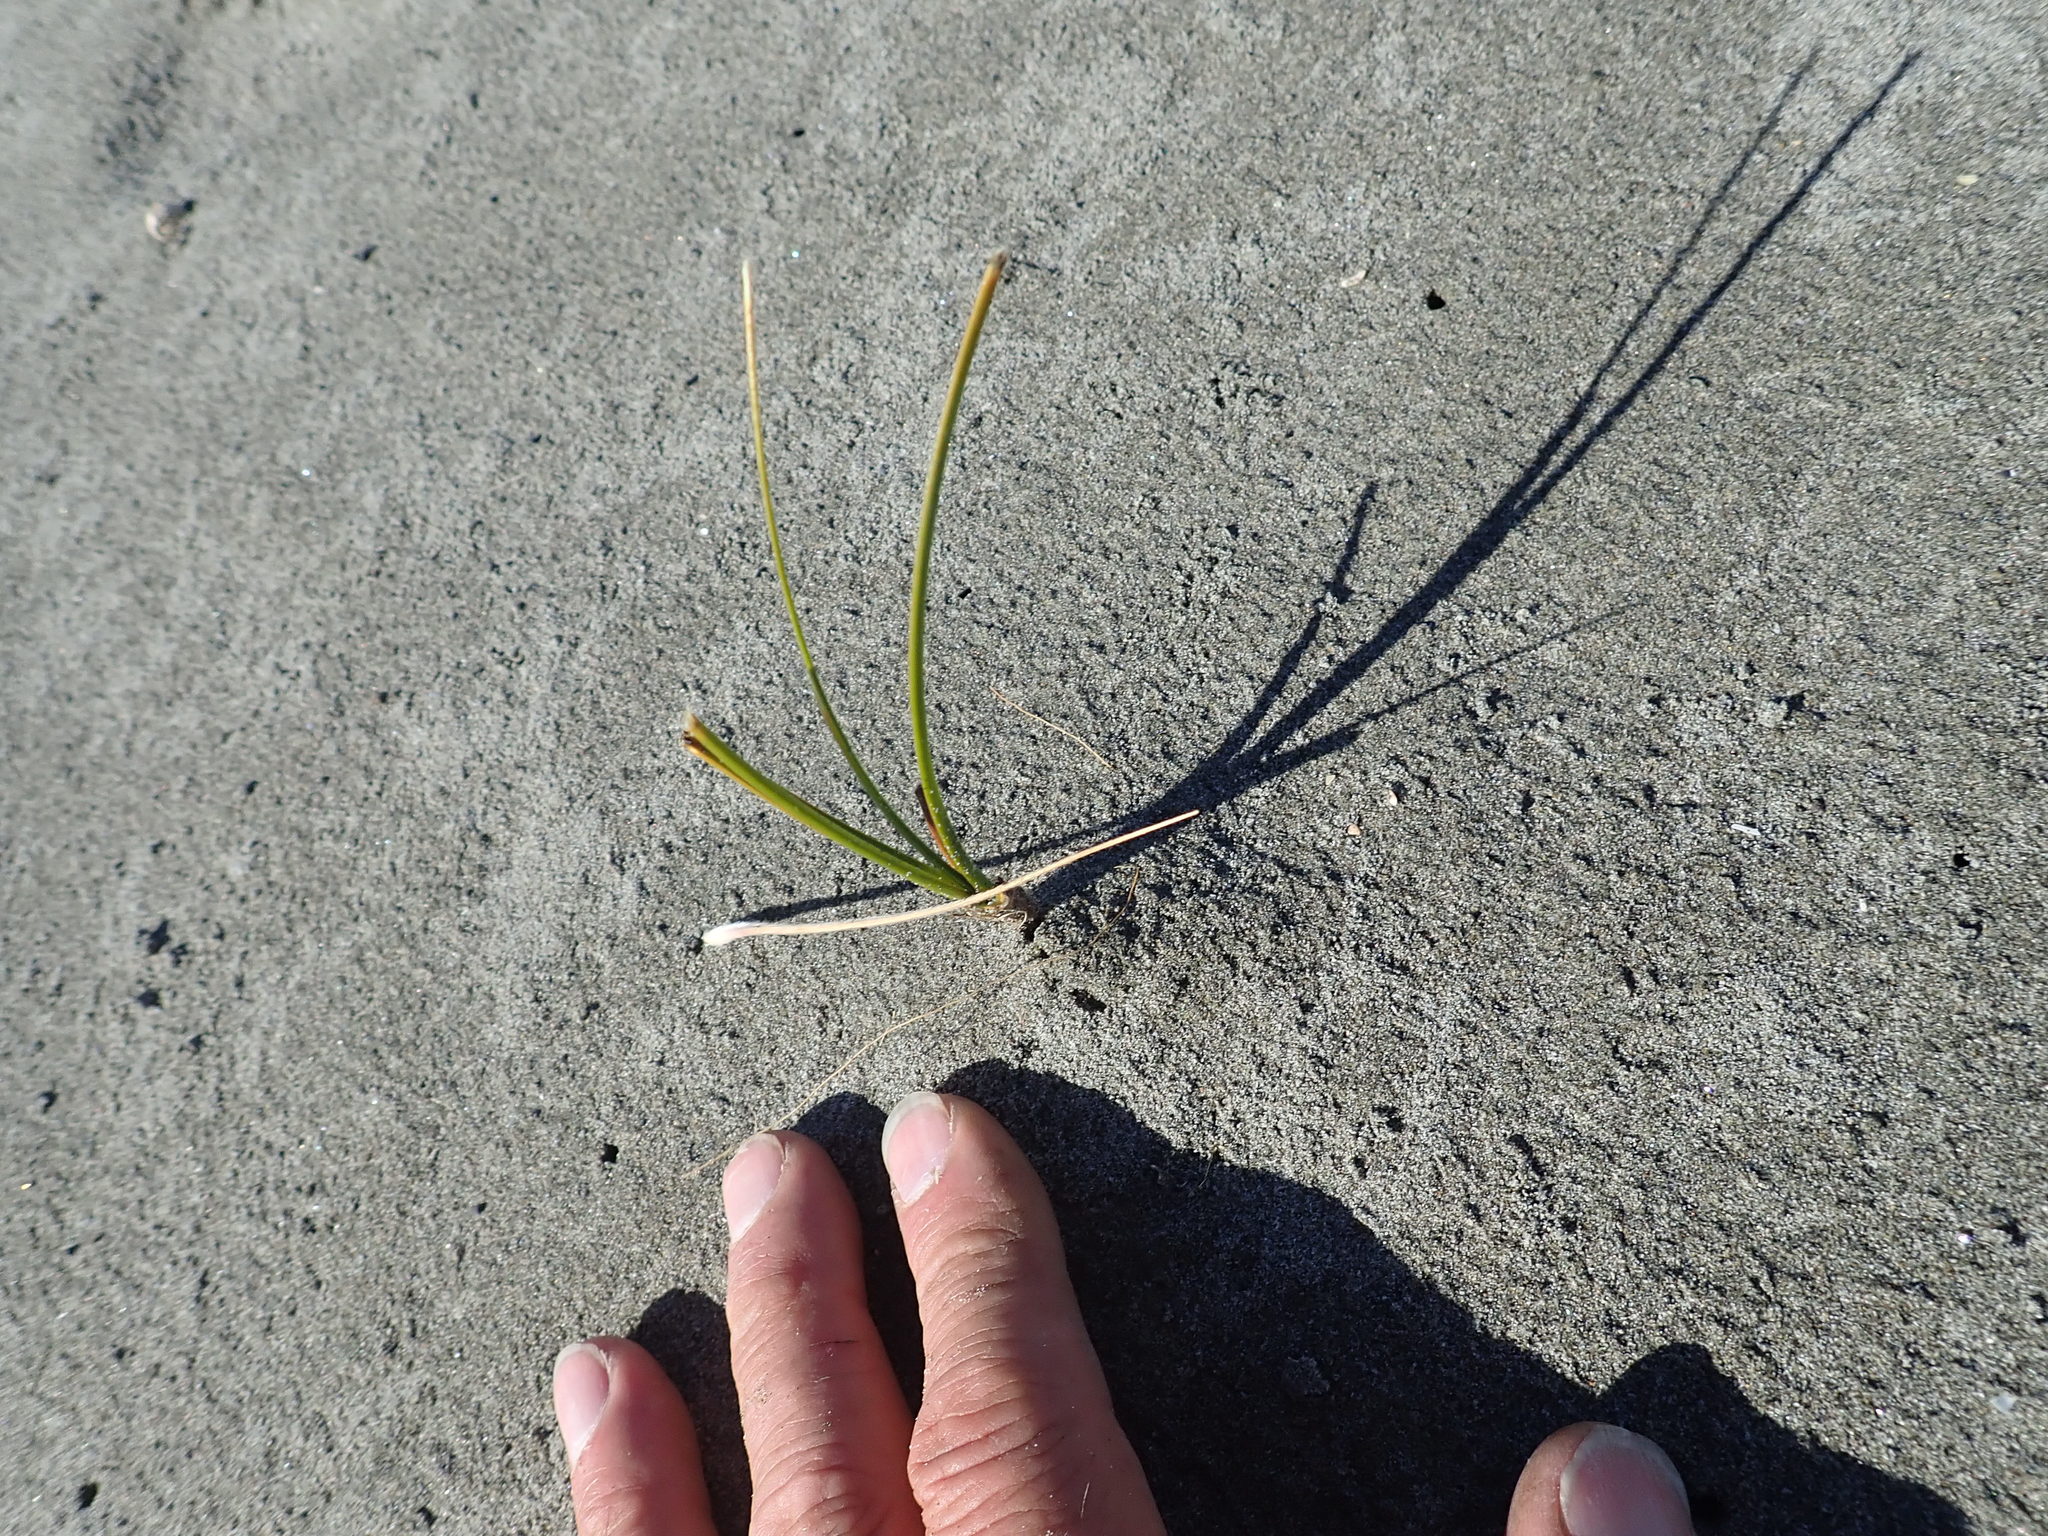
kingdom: Plantae
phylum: Tracheophyta
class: Liliopsida
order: Poales
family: Cyperaceae
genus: Ficinia
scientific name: Ficinia spiralis
